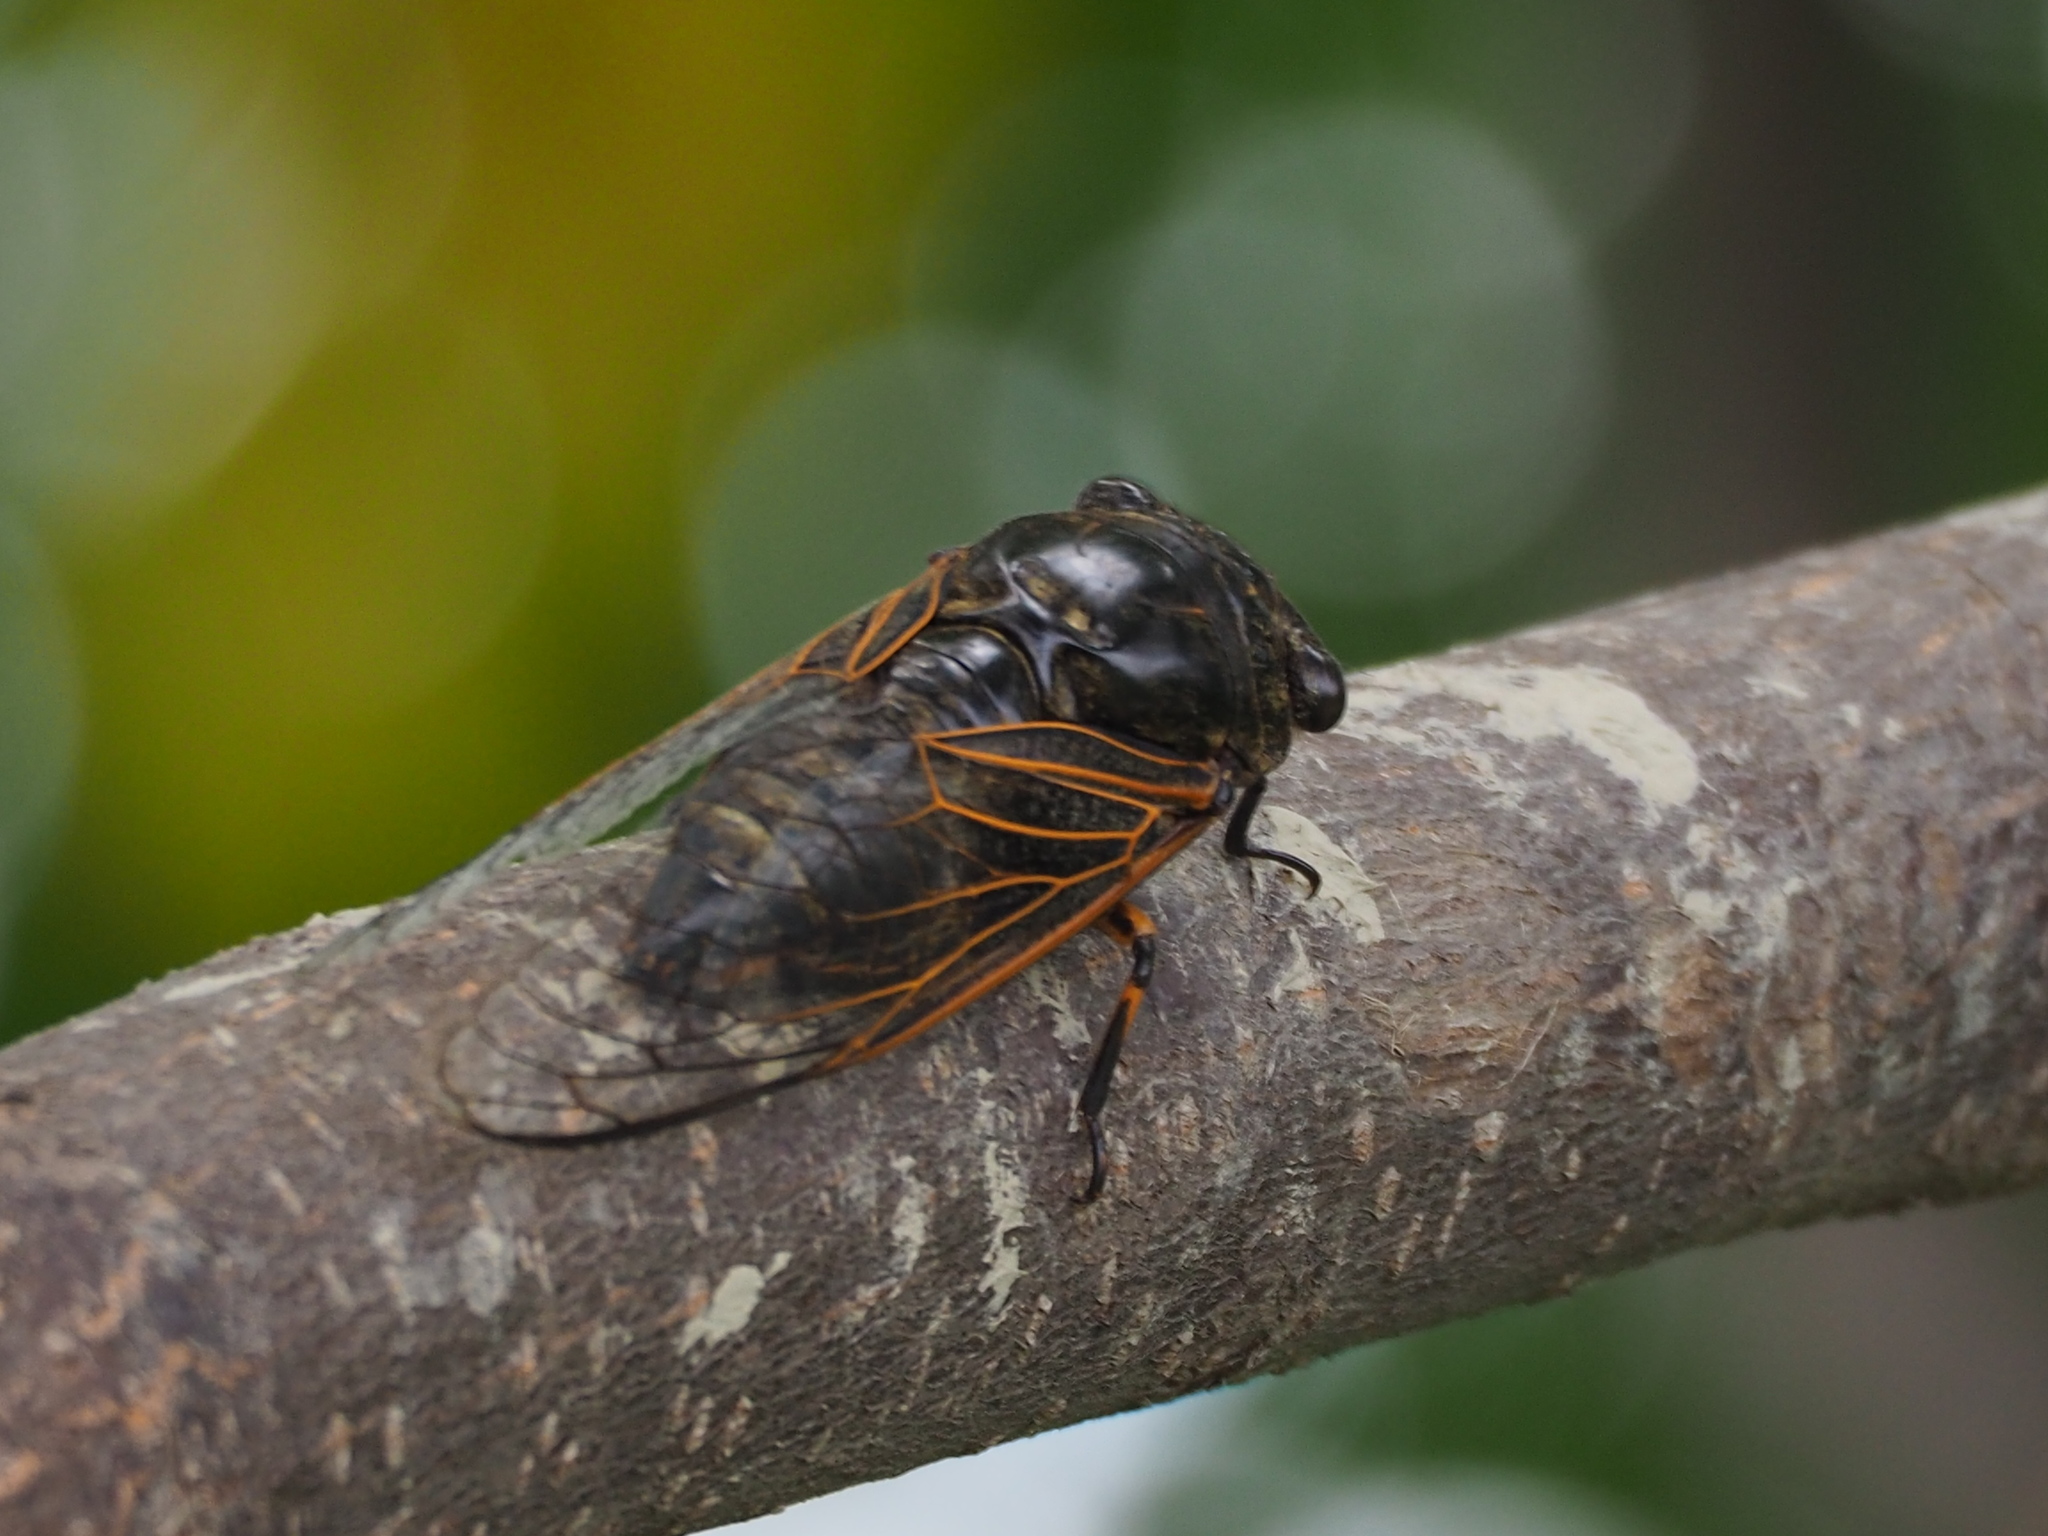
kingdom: Animalia
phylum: Arthropoda
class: Insecta
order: Hemiptera
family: Cicadidae
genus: Cryptotympana
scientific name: Cryptotympana atrata
